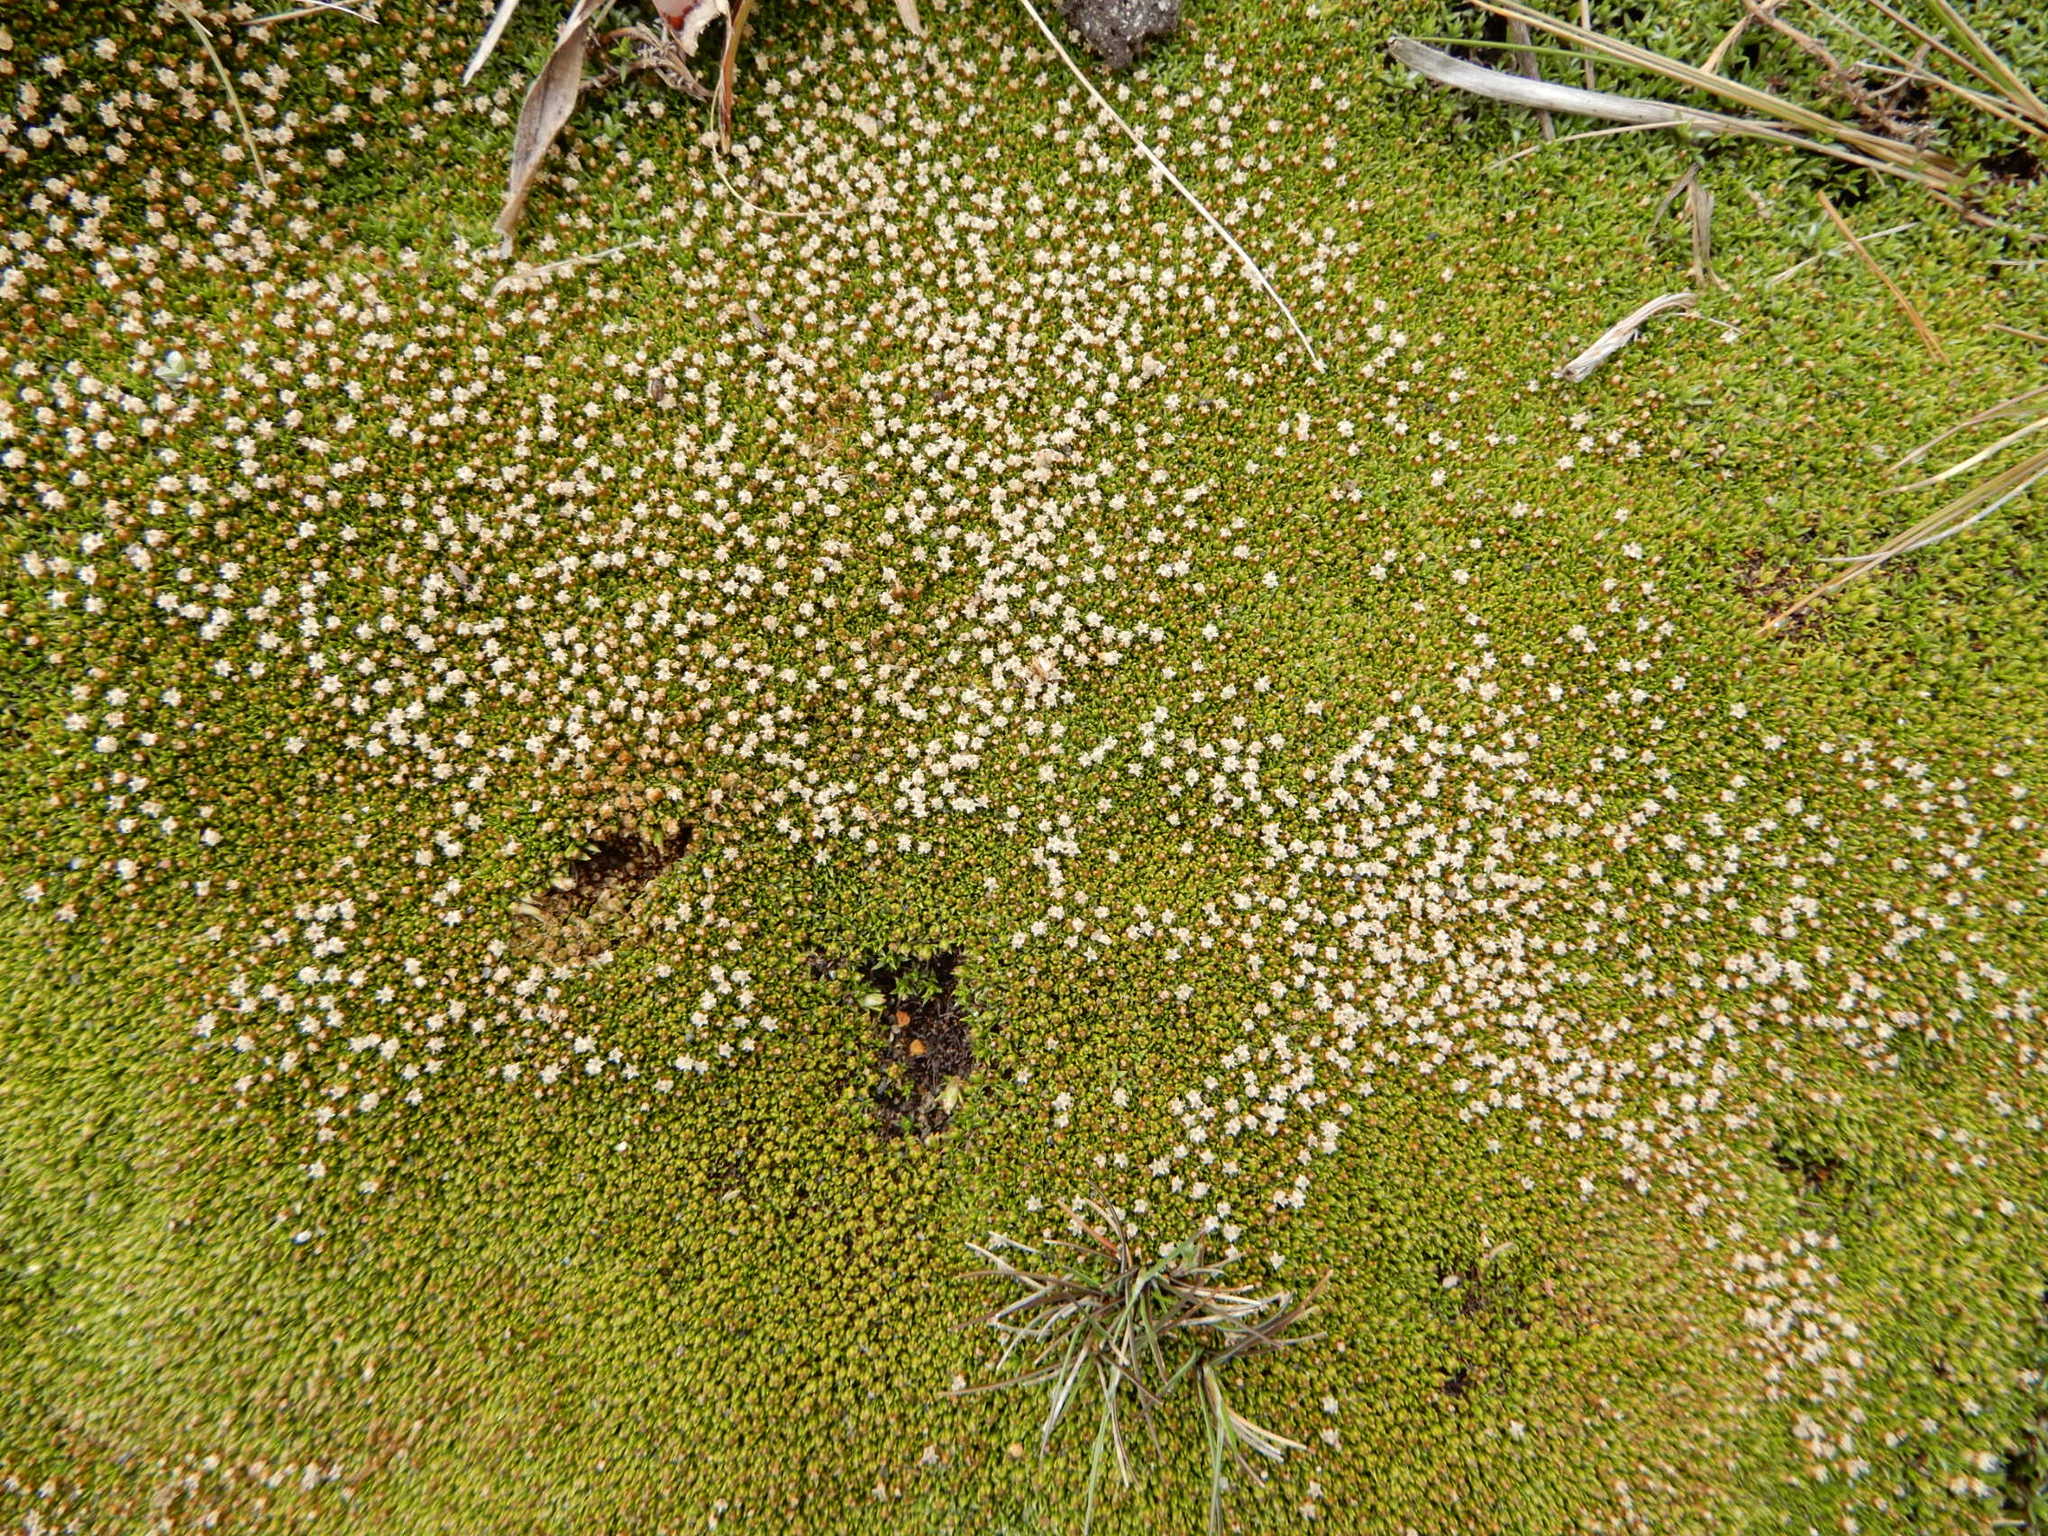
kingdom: Plantae
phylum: Tracheophyta
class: Magnoliopsida
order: Asterales
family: Asteraceae
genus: Raoulia
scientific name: Raoulia tenuicaulis
